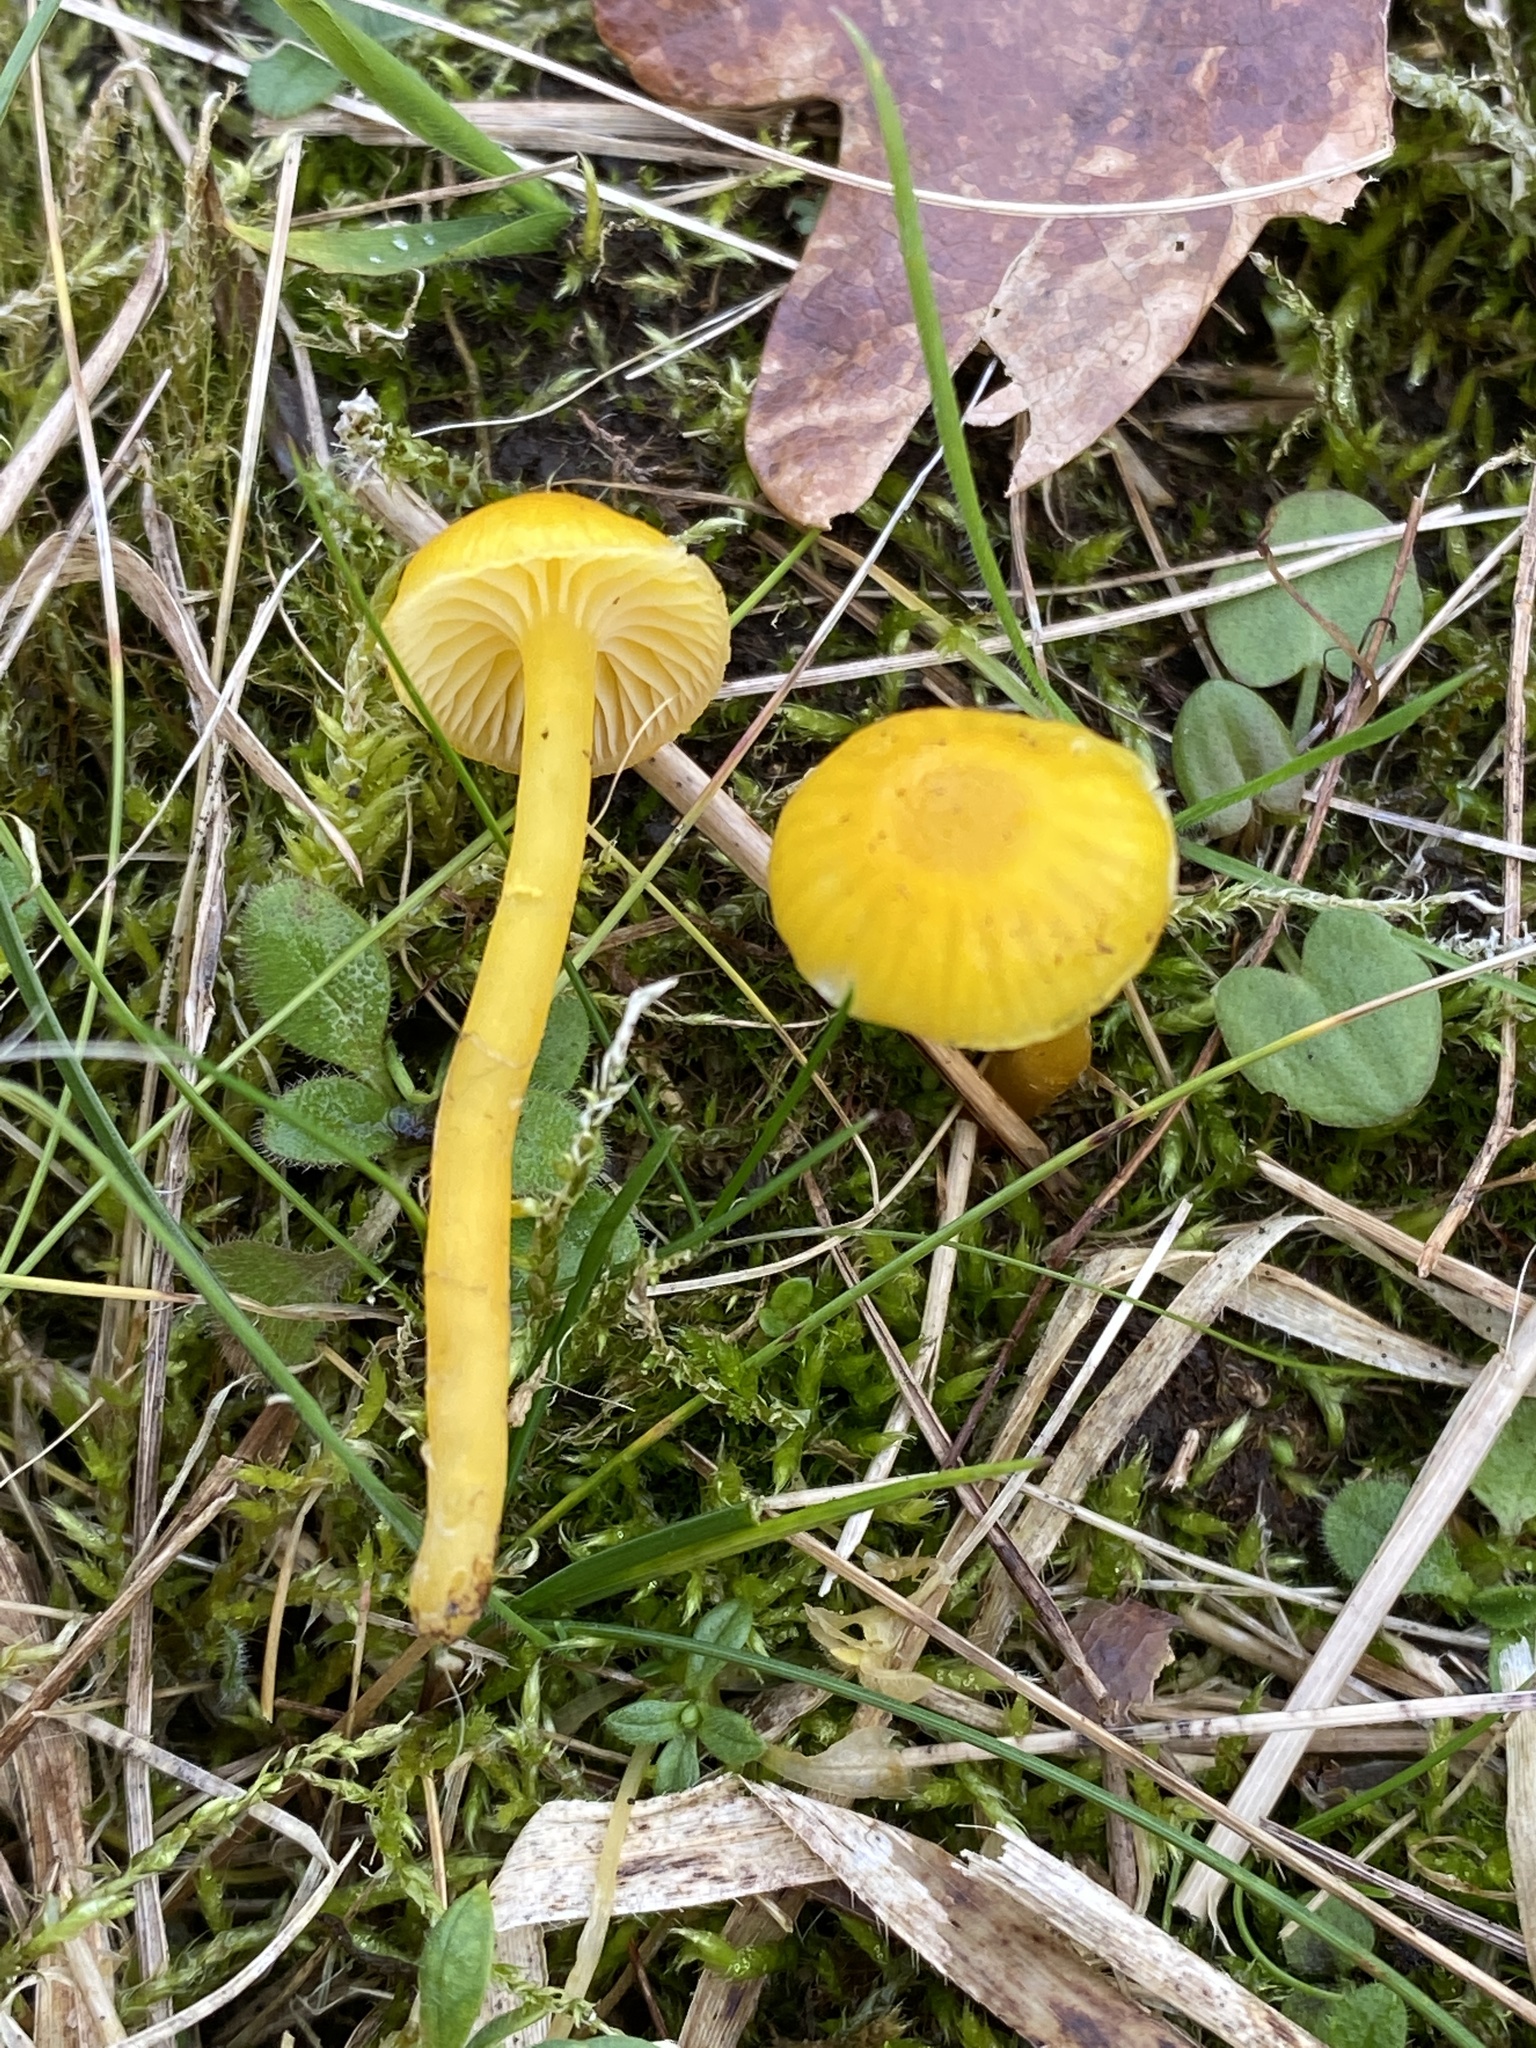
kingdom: Fungi
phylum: Basidiomycota
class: Agaricomycetes
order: Agaricales
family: Hygrophoraceae
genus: Hygrocybe
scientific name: Hygrocybe ceracea
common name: Butter waxcap
